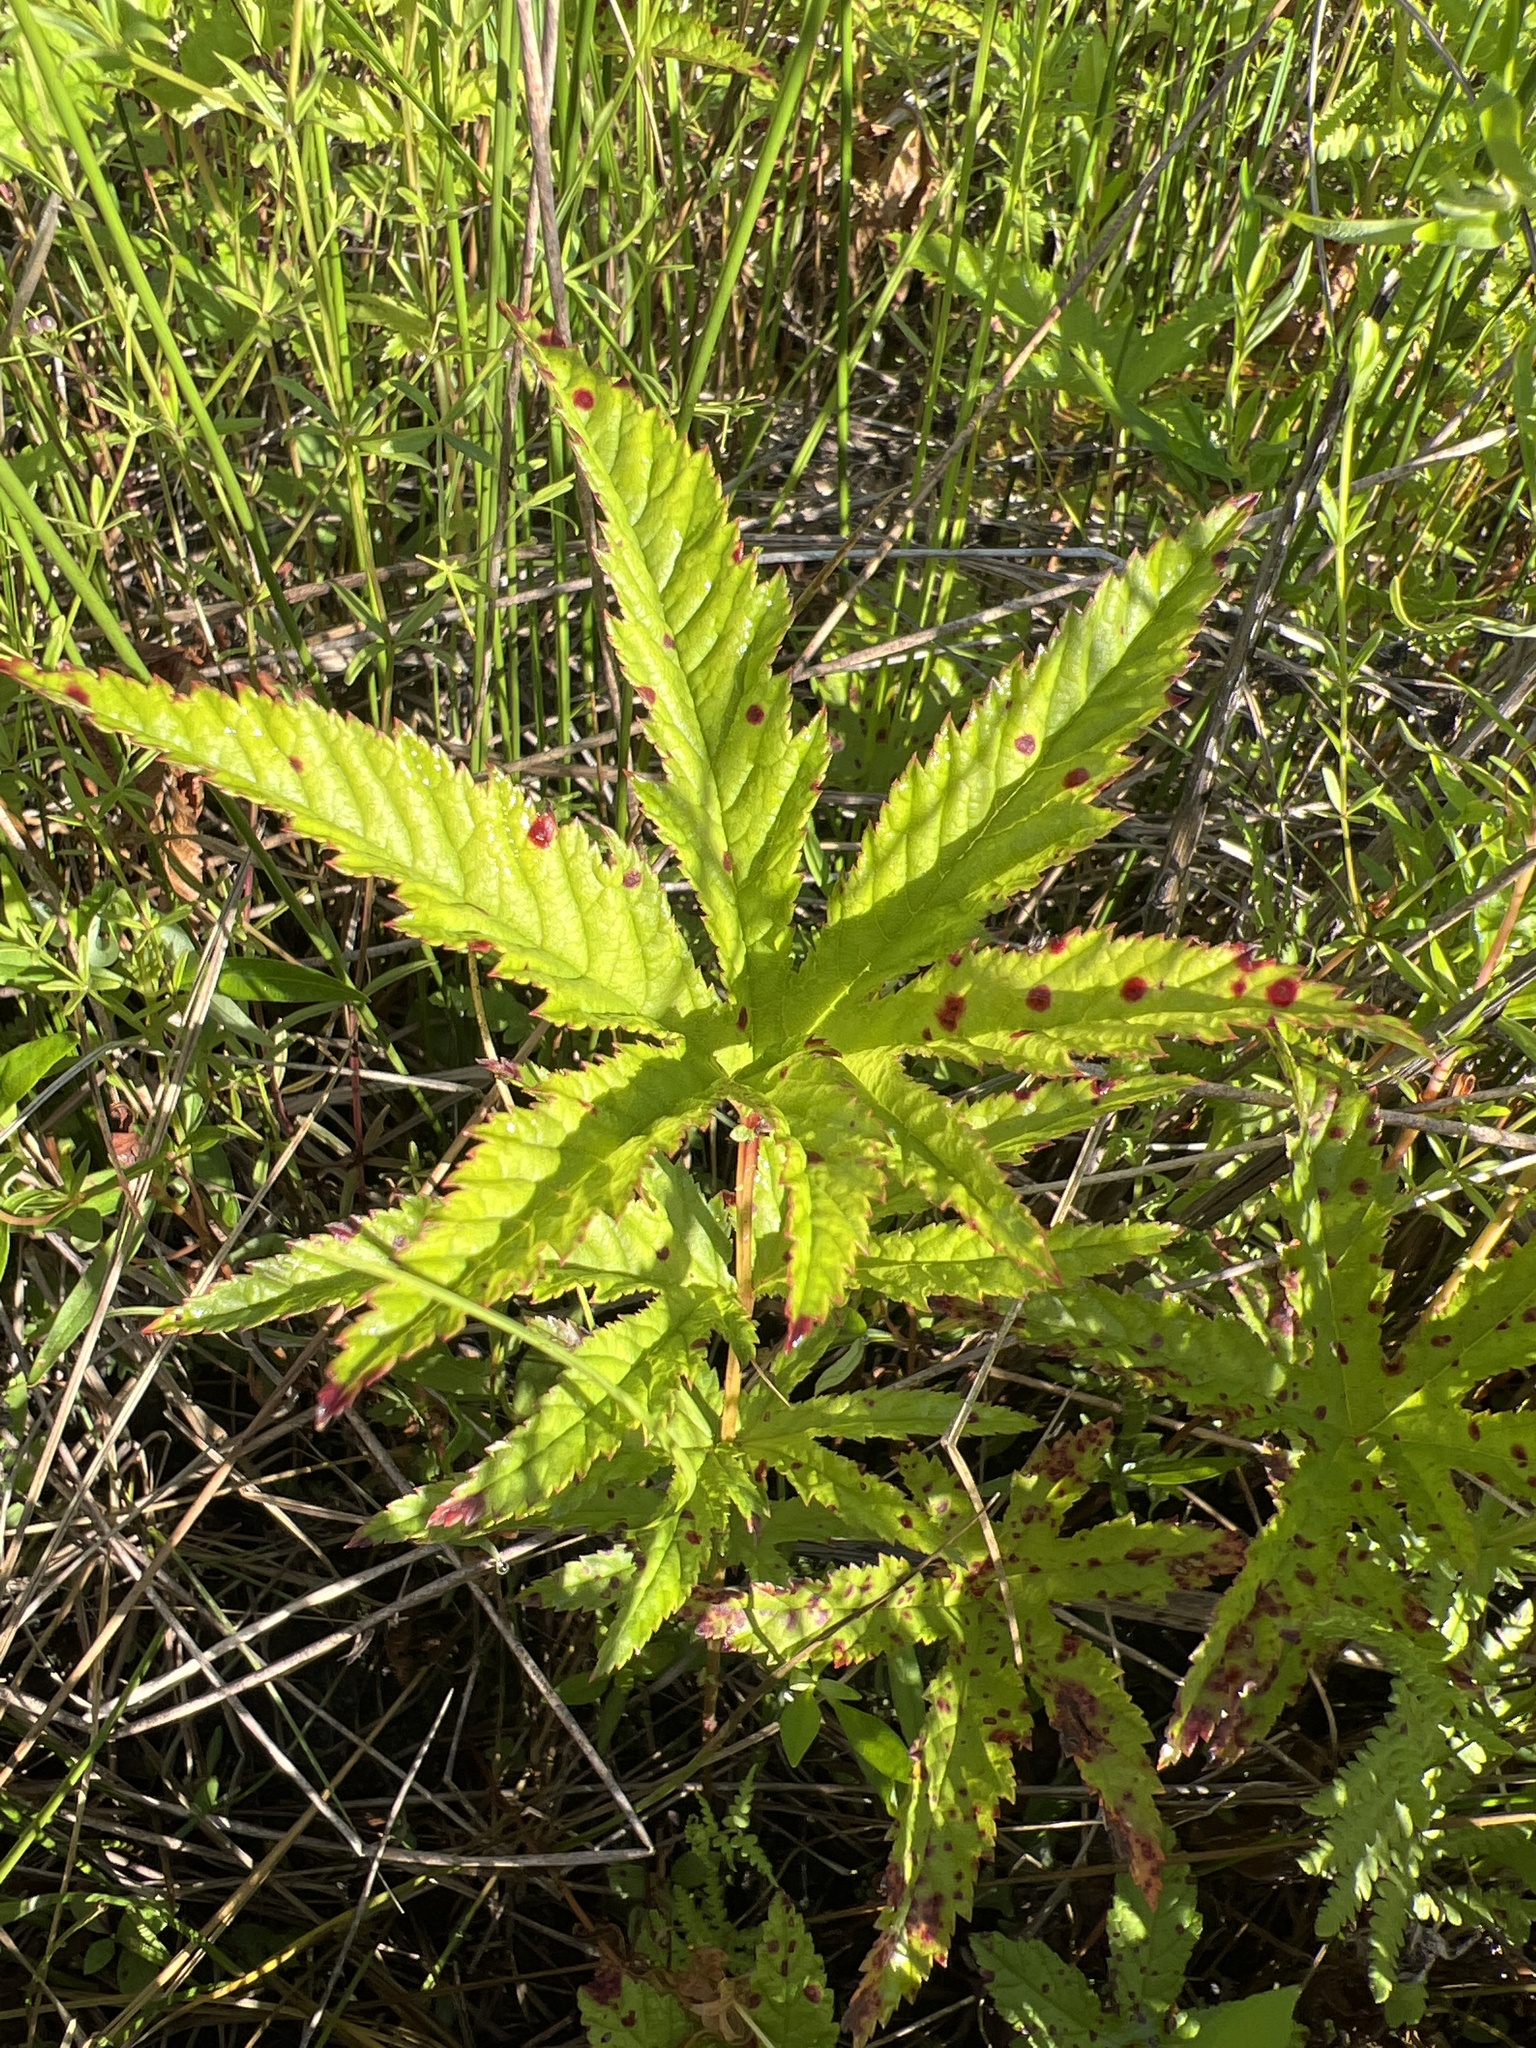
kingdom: Plantae
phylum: Tracheophyta
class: Magnoliopsida
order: Rosales
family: Rosaceae
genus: Filipendula
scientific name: Filipendula rubra
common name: Queen-of-the-prairie
